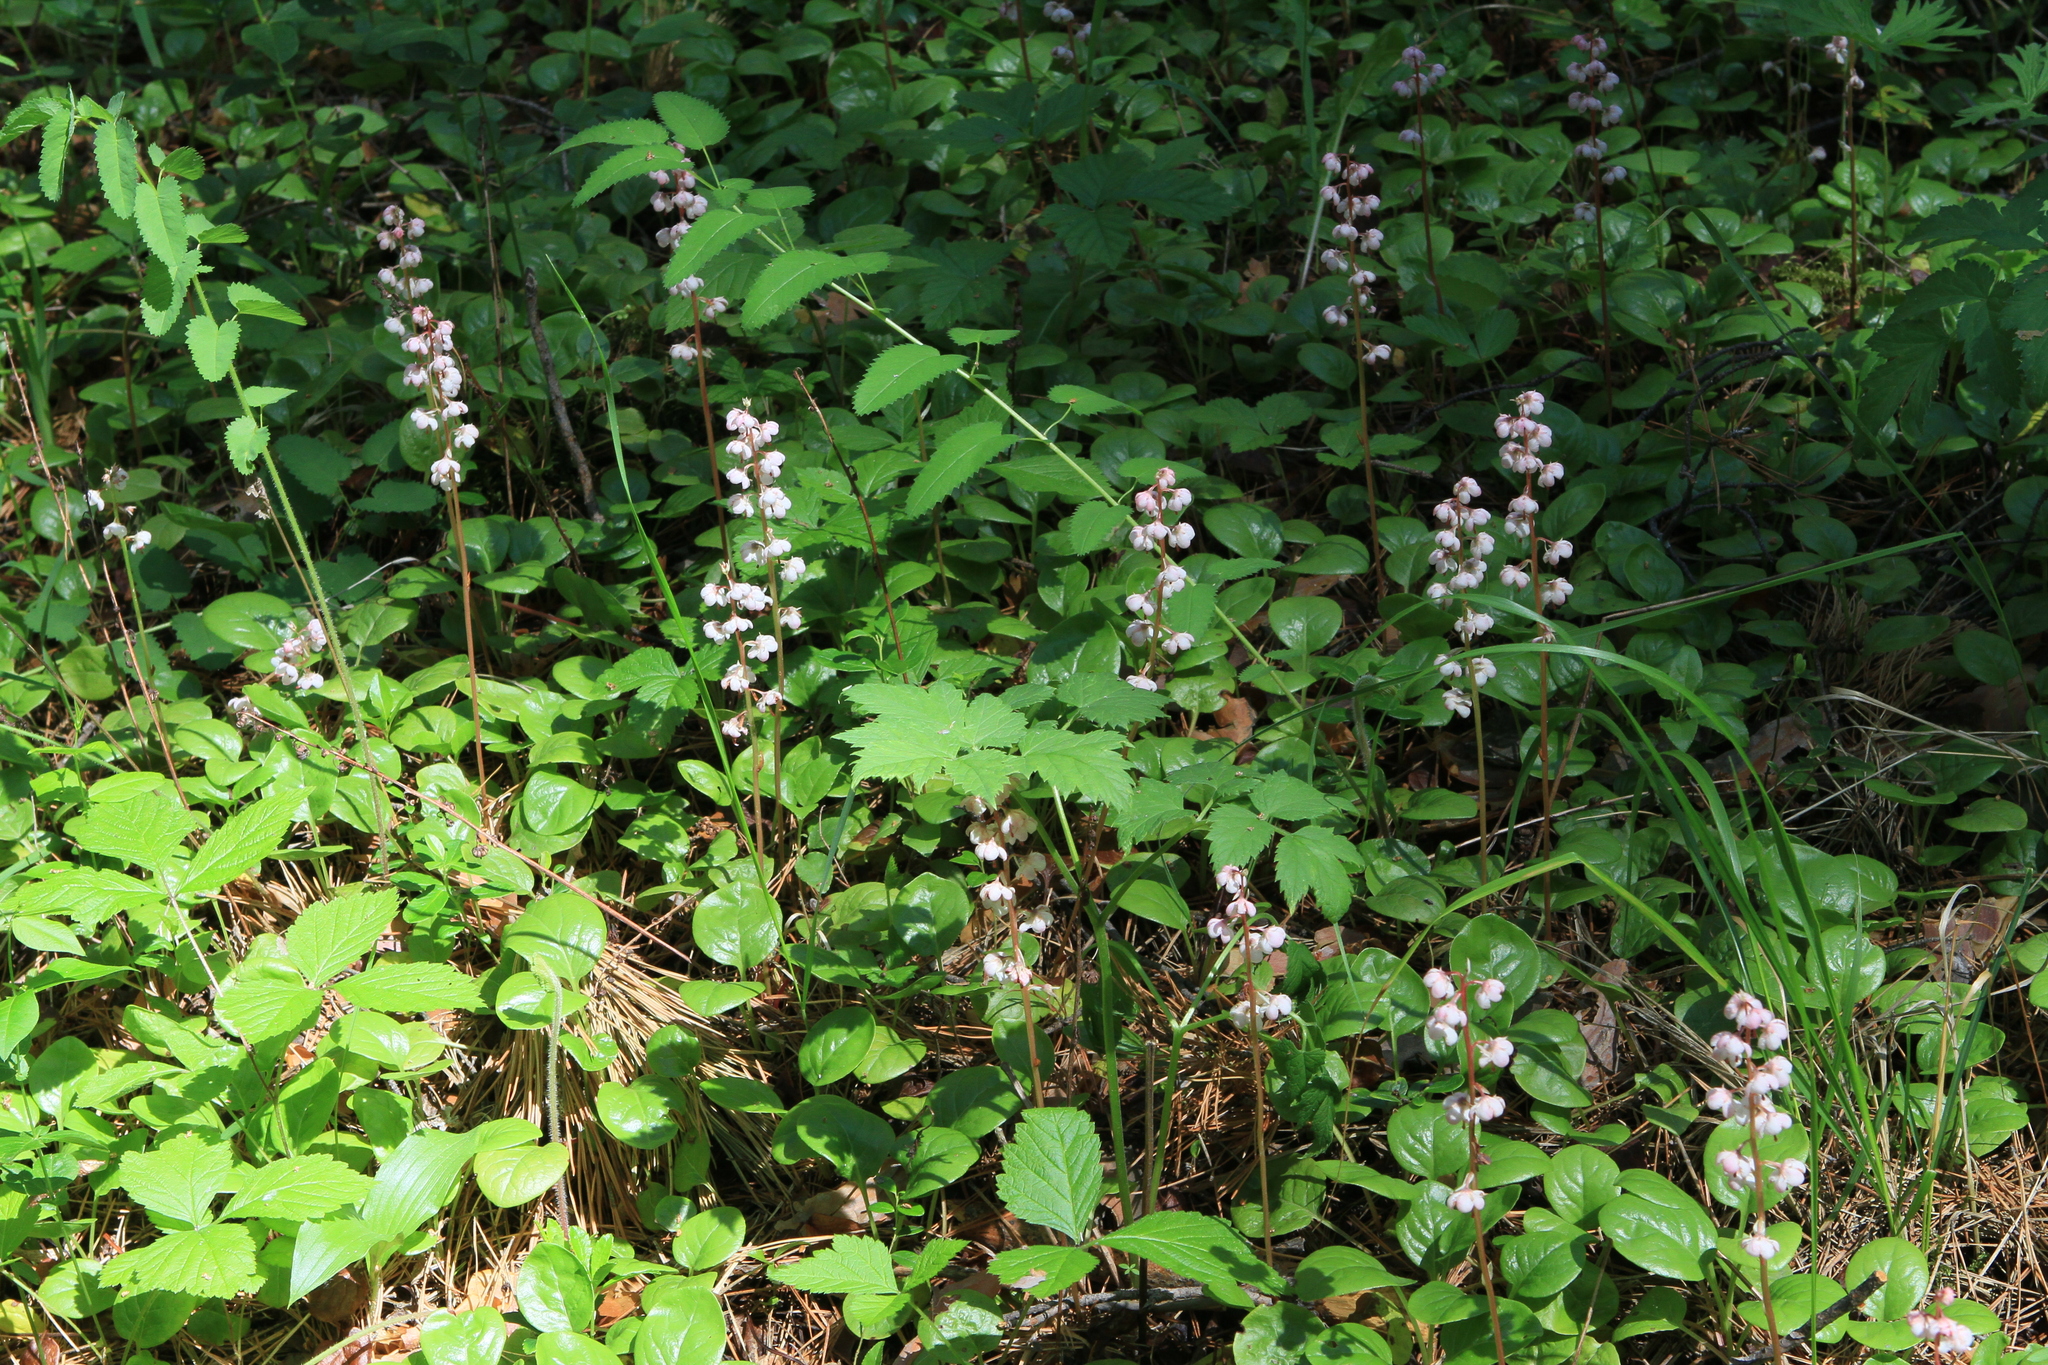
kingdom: Plantae
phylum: Tracheophyta
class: Magnoliopsida
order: Ericales
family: Ericaceae
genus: Pyrola
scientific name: Pyrola asarifolia
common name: Bog wintergreen
